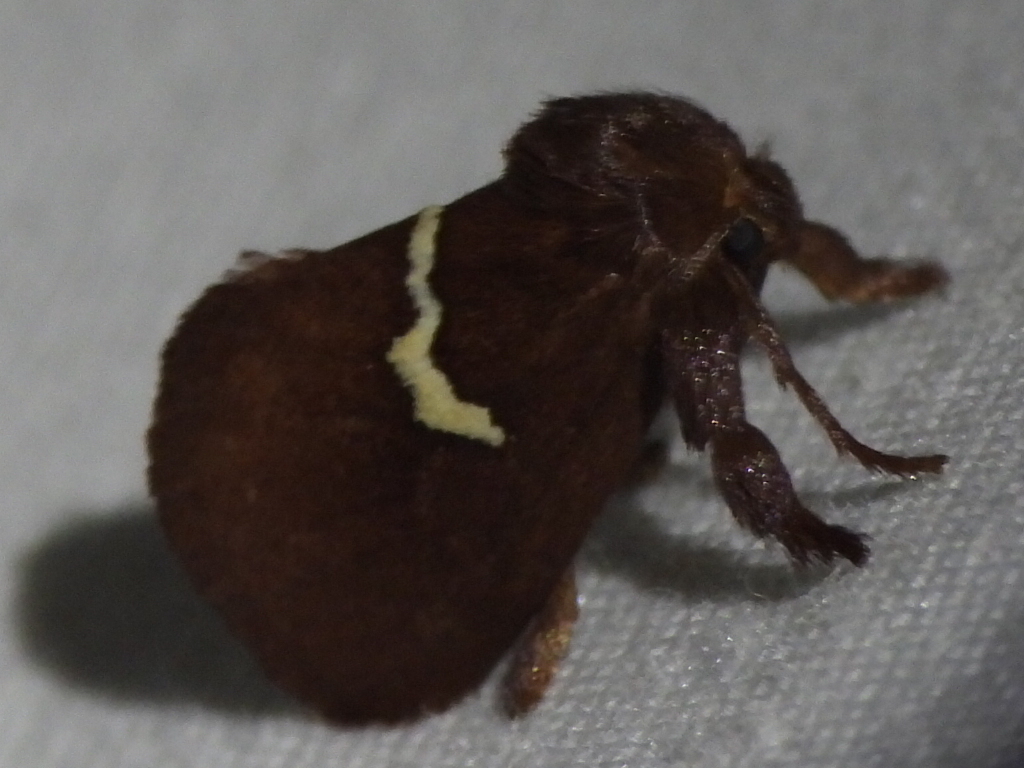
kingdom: Animalia
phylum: Arthropoda
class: Insecta
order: Lepidoptera
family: Limacodidae
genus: Monoleuca
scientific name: Monoleuca semifascia
